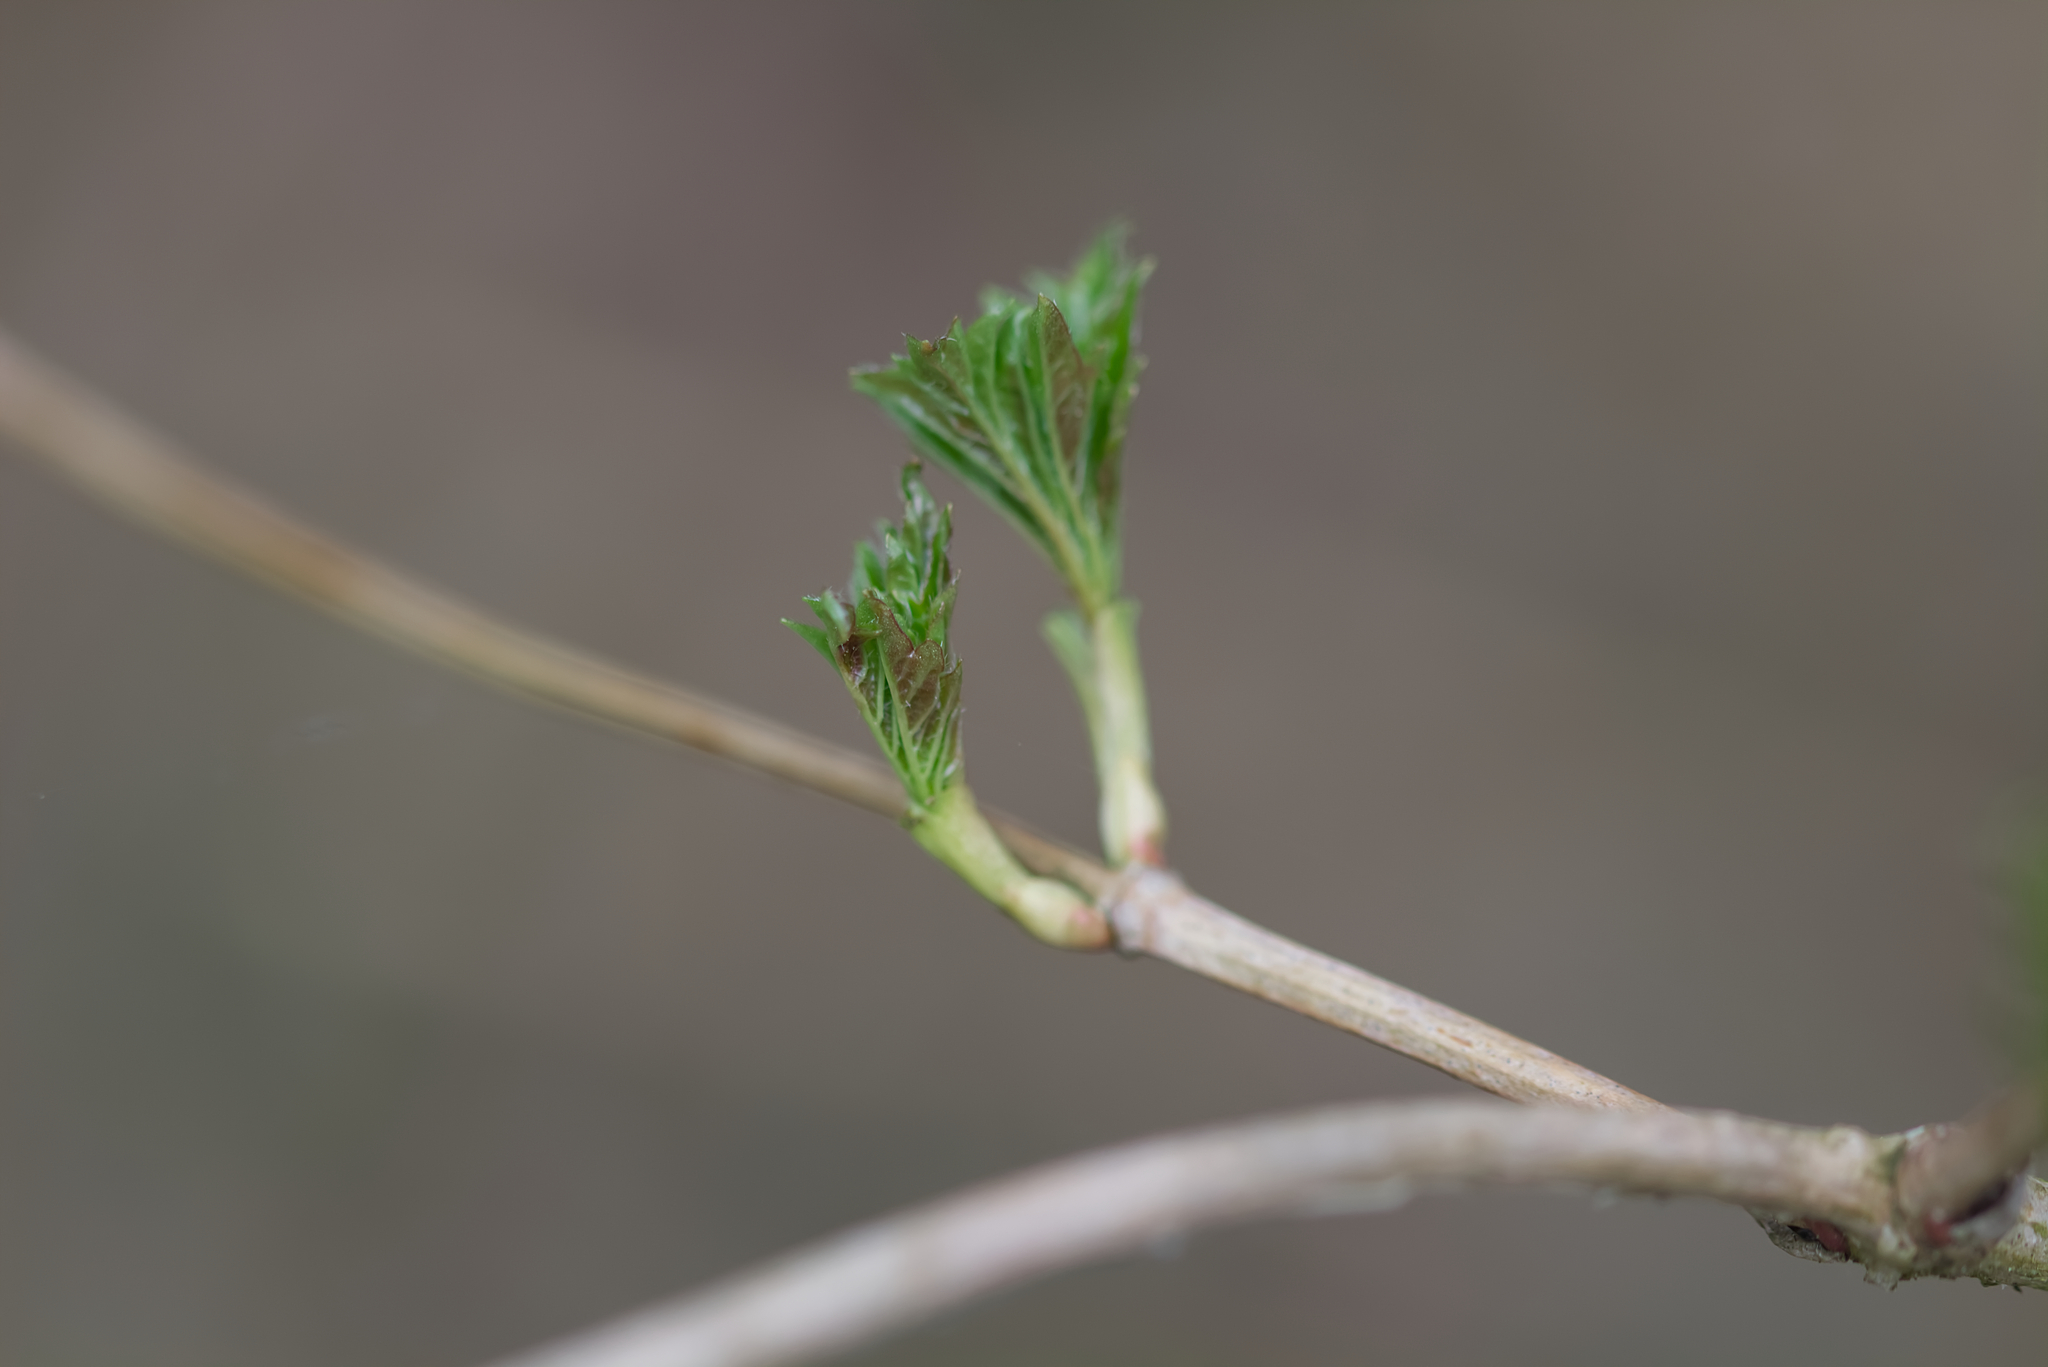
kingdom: Plantae
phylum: Tracheophyta
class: Magnoliopsida
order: Dipsacales
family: Viburnaceae
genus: Viburnum
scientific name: Viburnum opulus
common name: Guelder-rose
